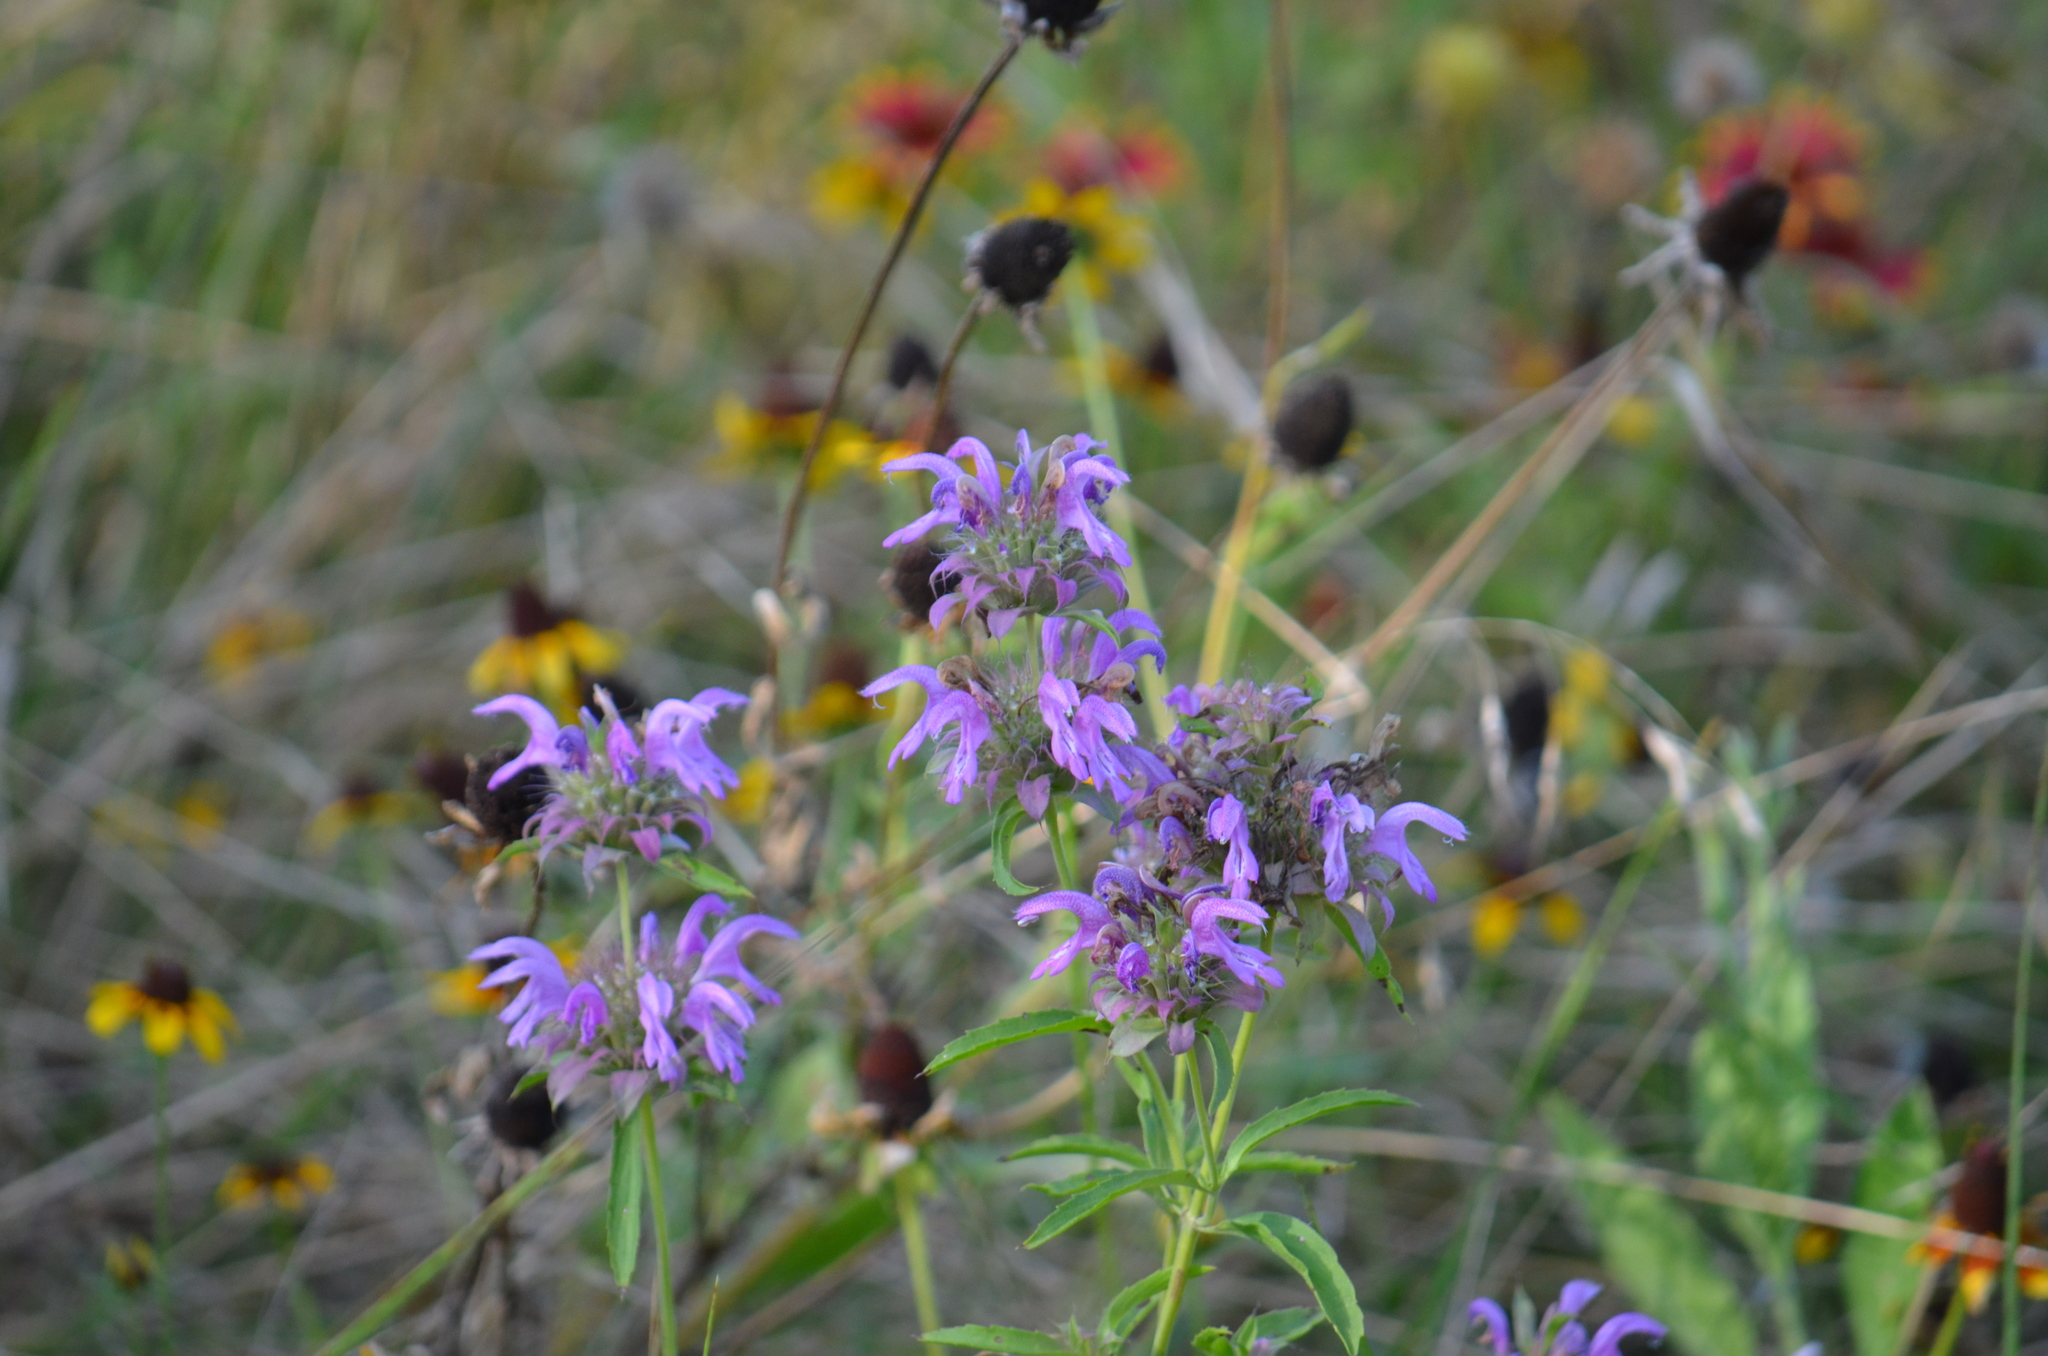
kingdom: Plantae
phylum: Tracheophyta
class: Magnoliopsida
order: Lamiales
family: Lamiaceae
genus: Monarda
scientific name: Monarda citriodora
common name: Lemon beebalm
